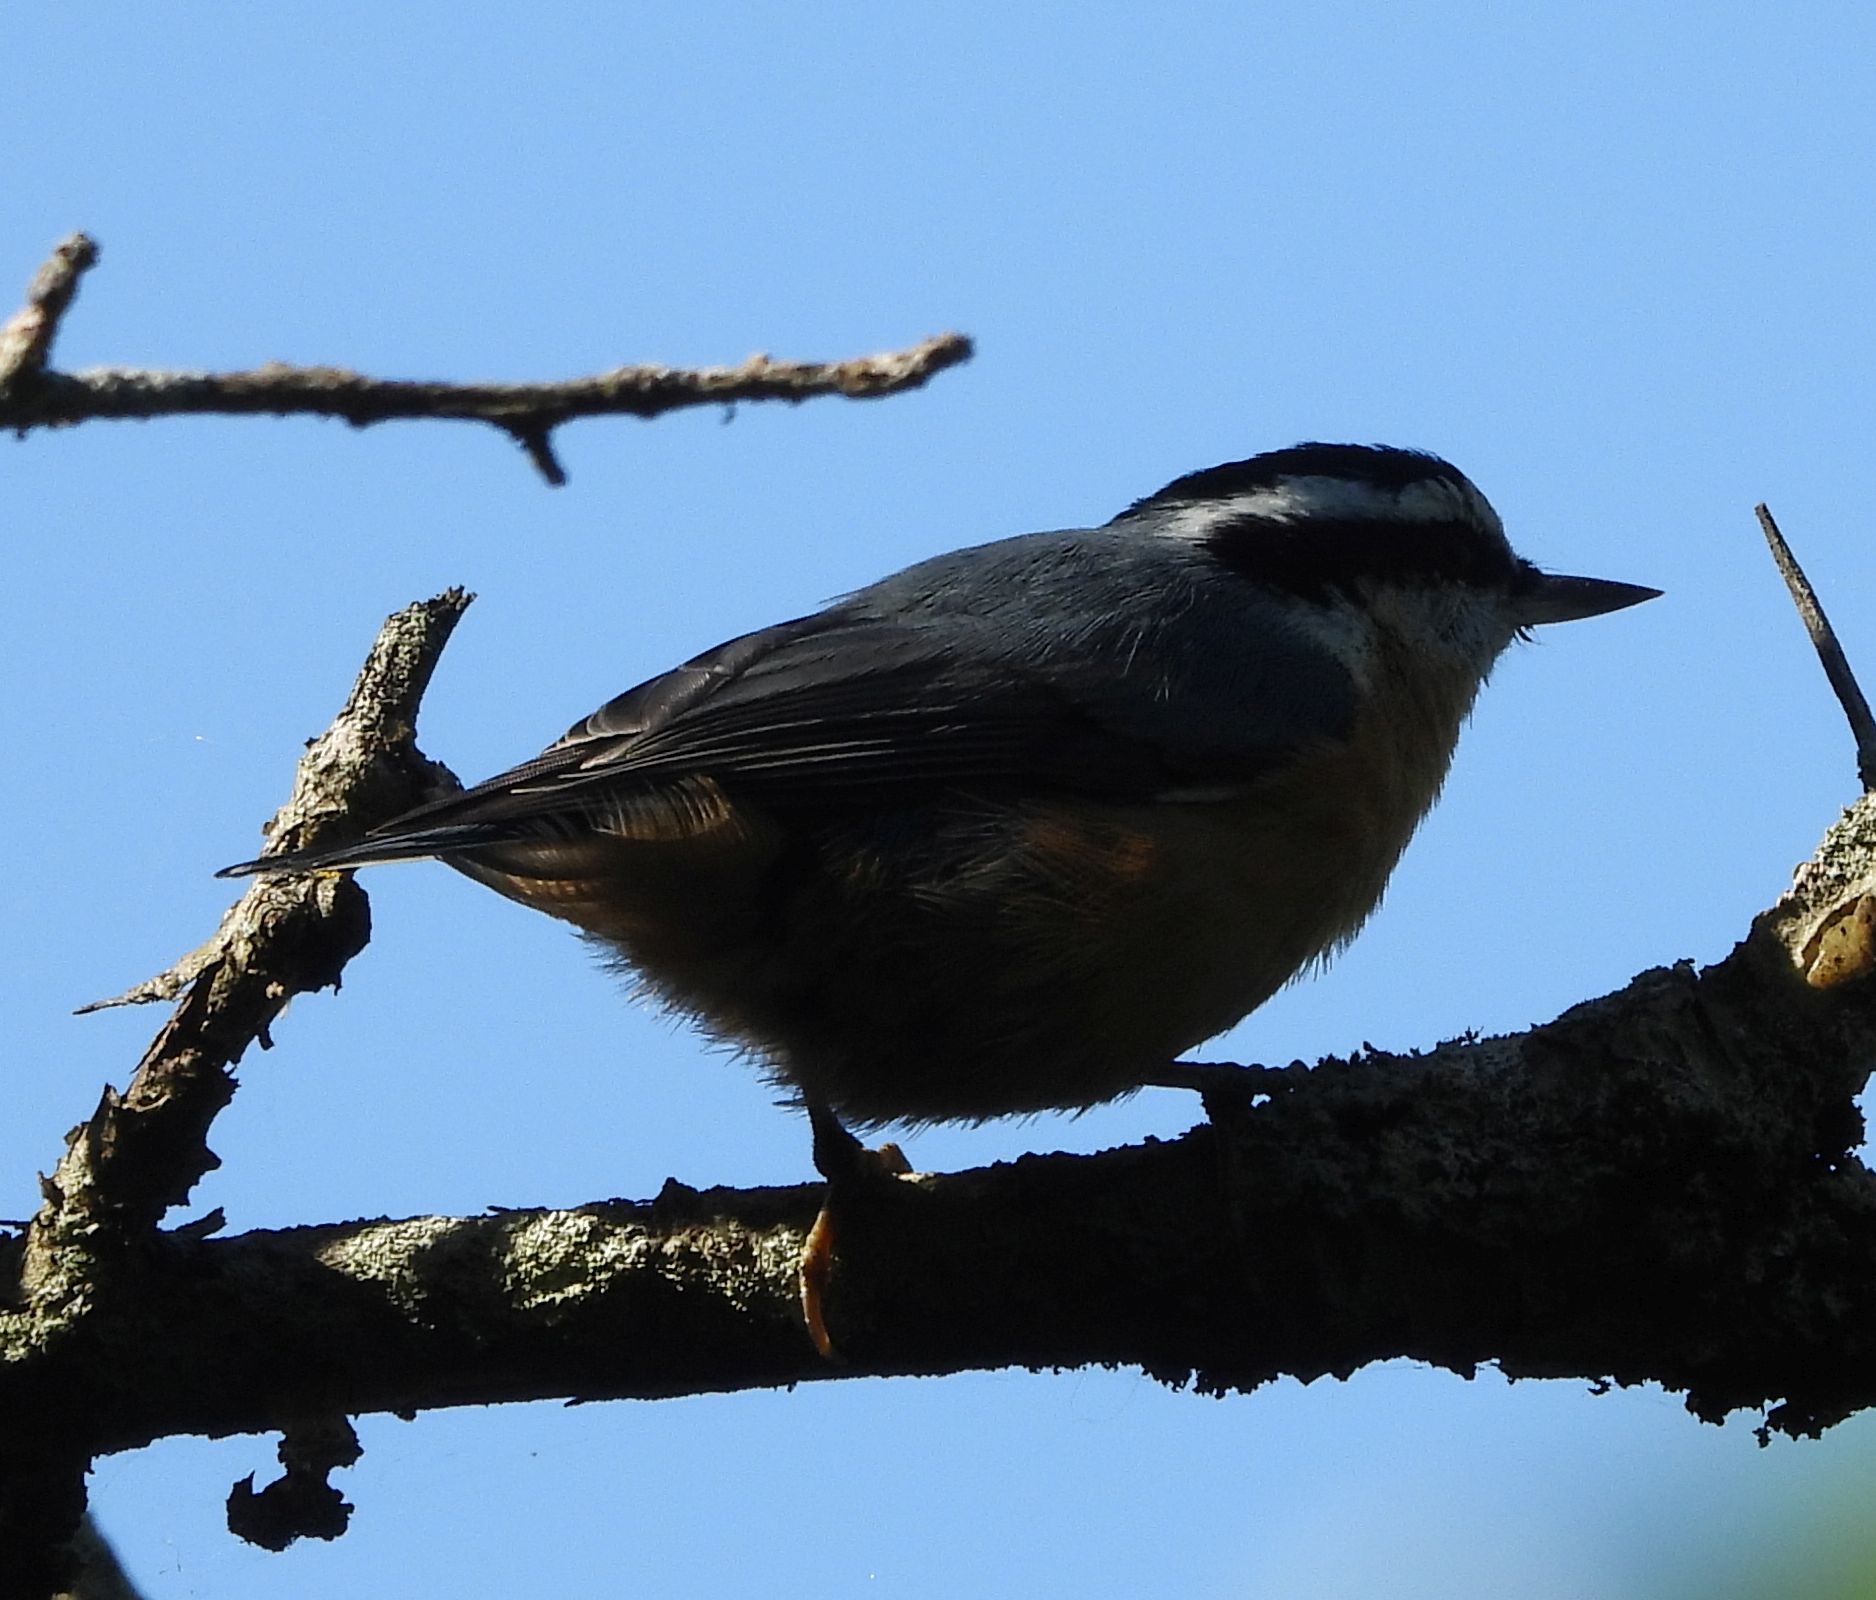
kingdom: Animalia
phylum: Chordata
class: Aves
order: Passeriformes
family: Sittidae
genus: Sitta
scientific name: Sitta canadensis
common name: Red-breasted nuthatch
